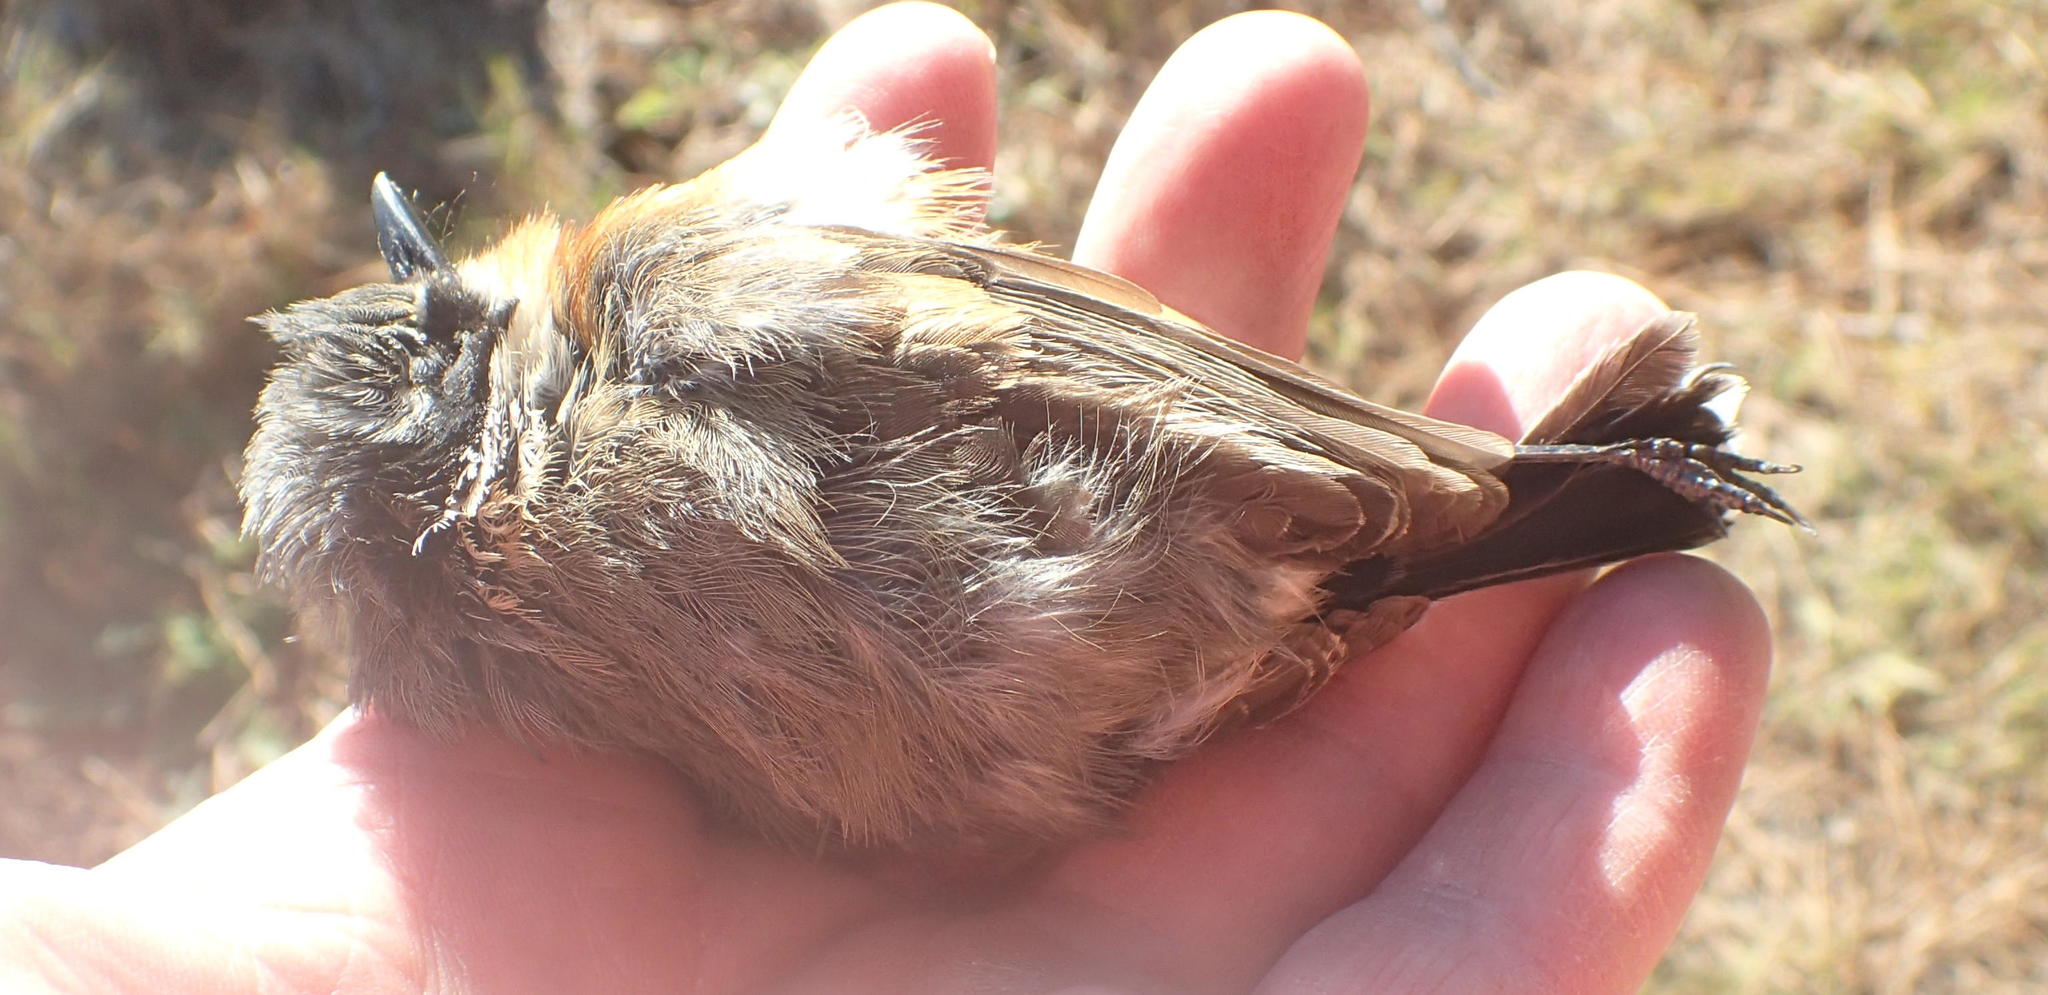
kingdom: Animalia
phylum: Chordata
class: Aves
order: Passeriformes
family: Platysteiridae
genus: Batis
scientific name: Batis capensis
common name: Cape batis
